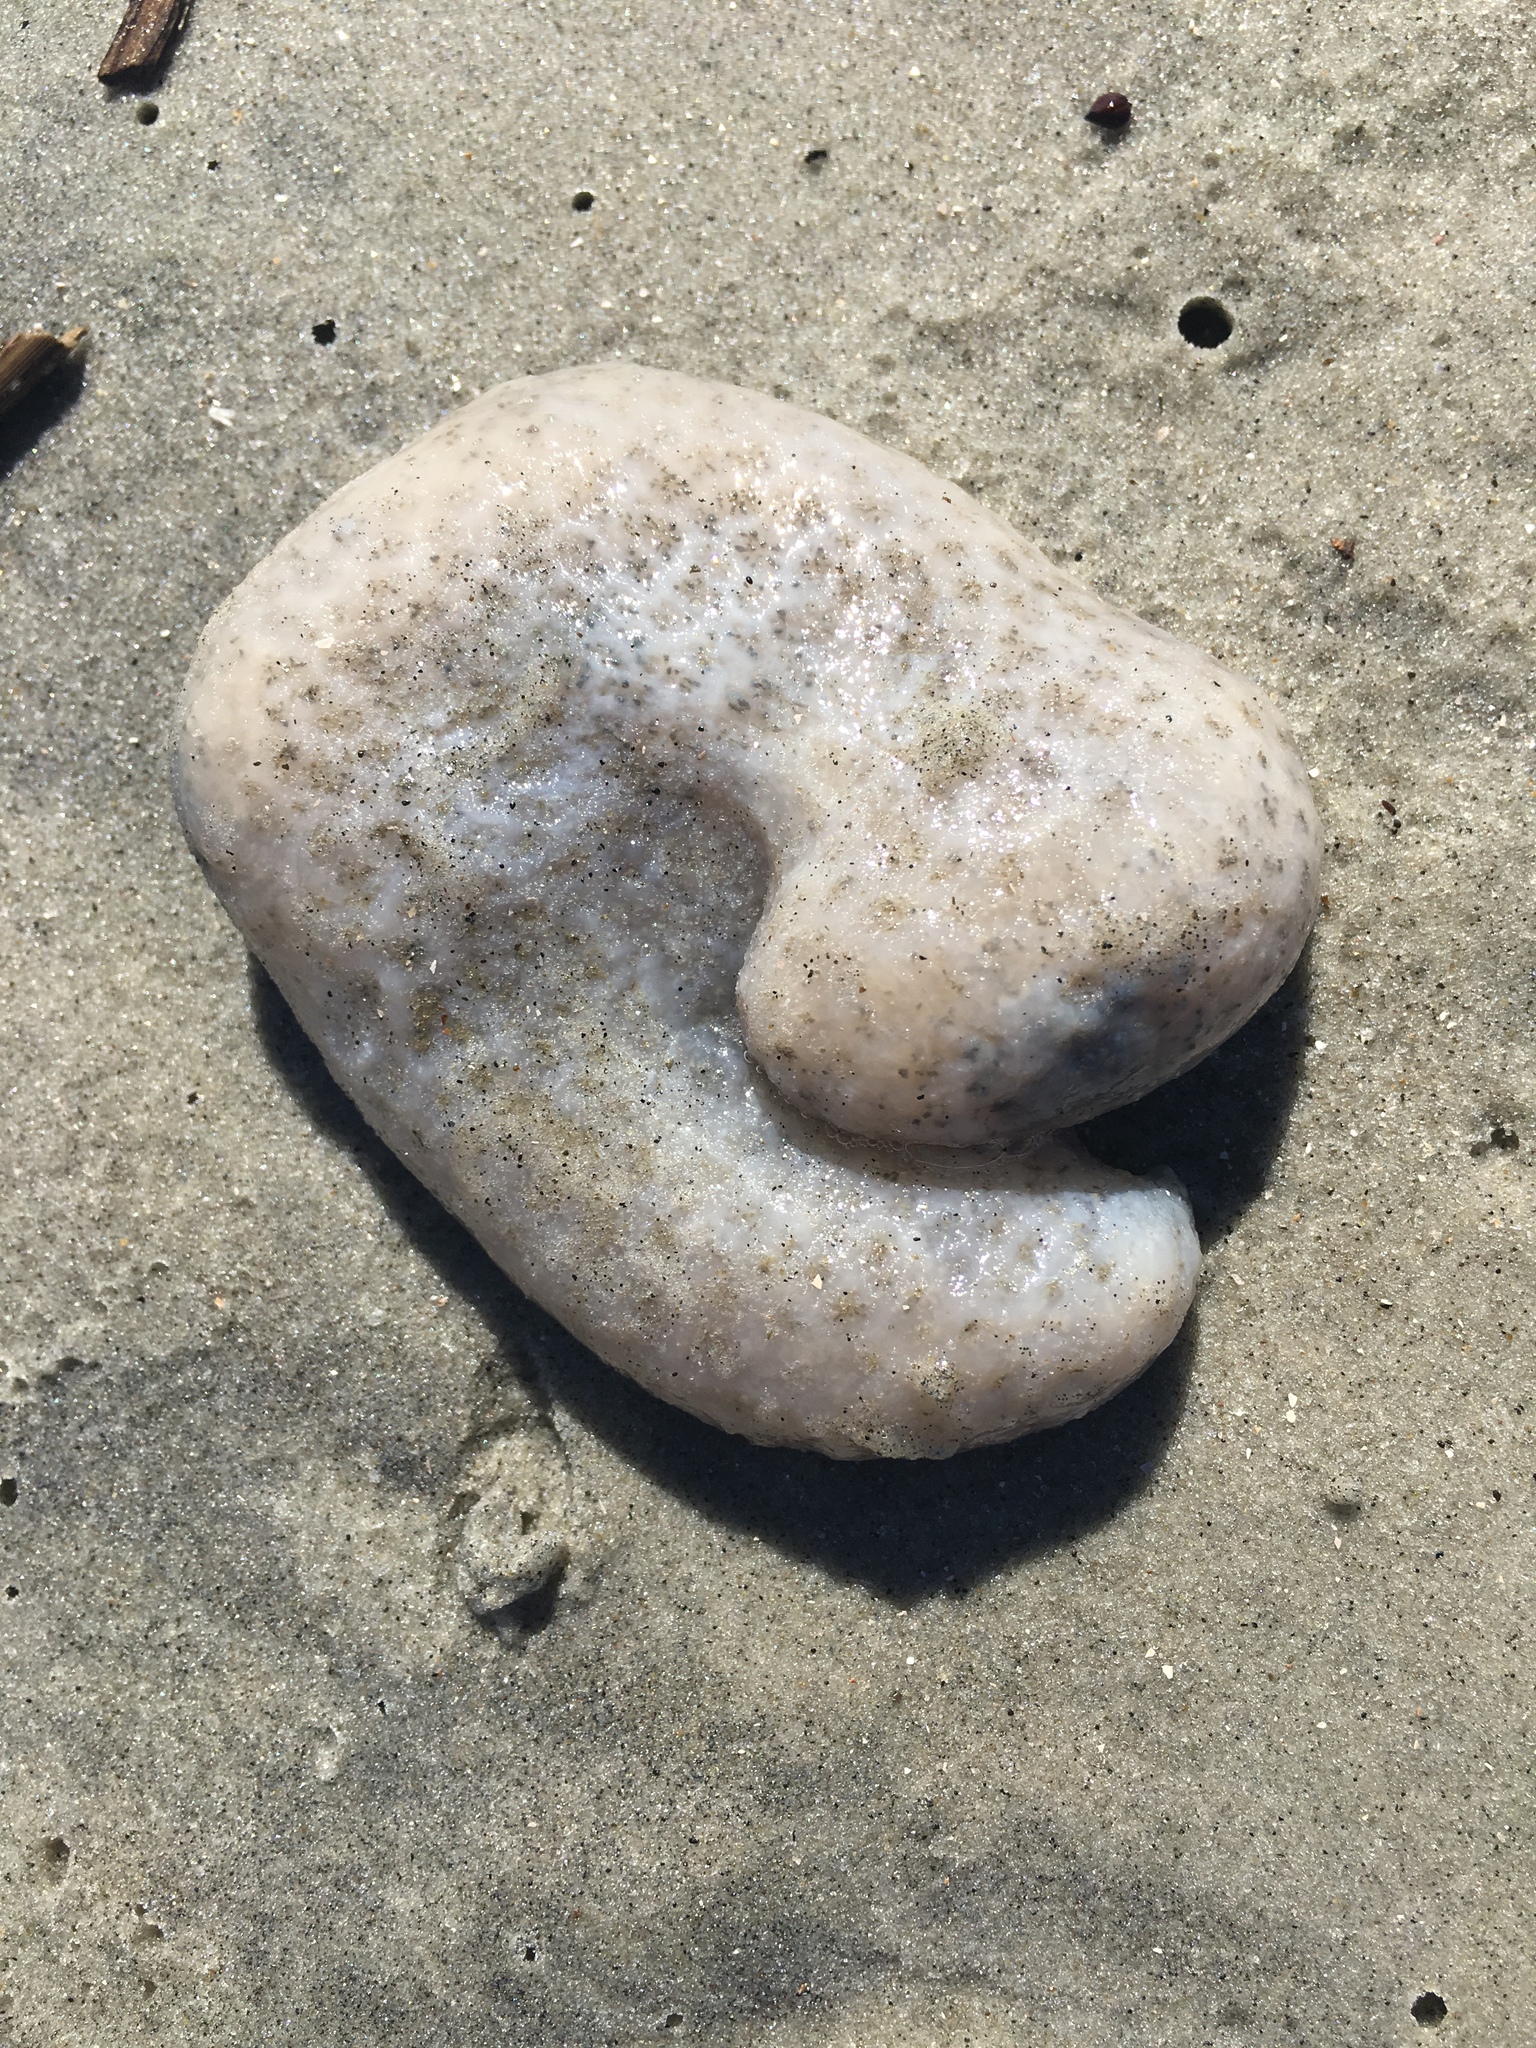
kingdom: Animalia
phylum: Chordata
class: Ascidiacea
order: Aplousobranchia
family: Polyclinidae
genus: Aplidium
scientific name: Aplidium stellatum
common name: Atlantic sea pork
